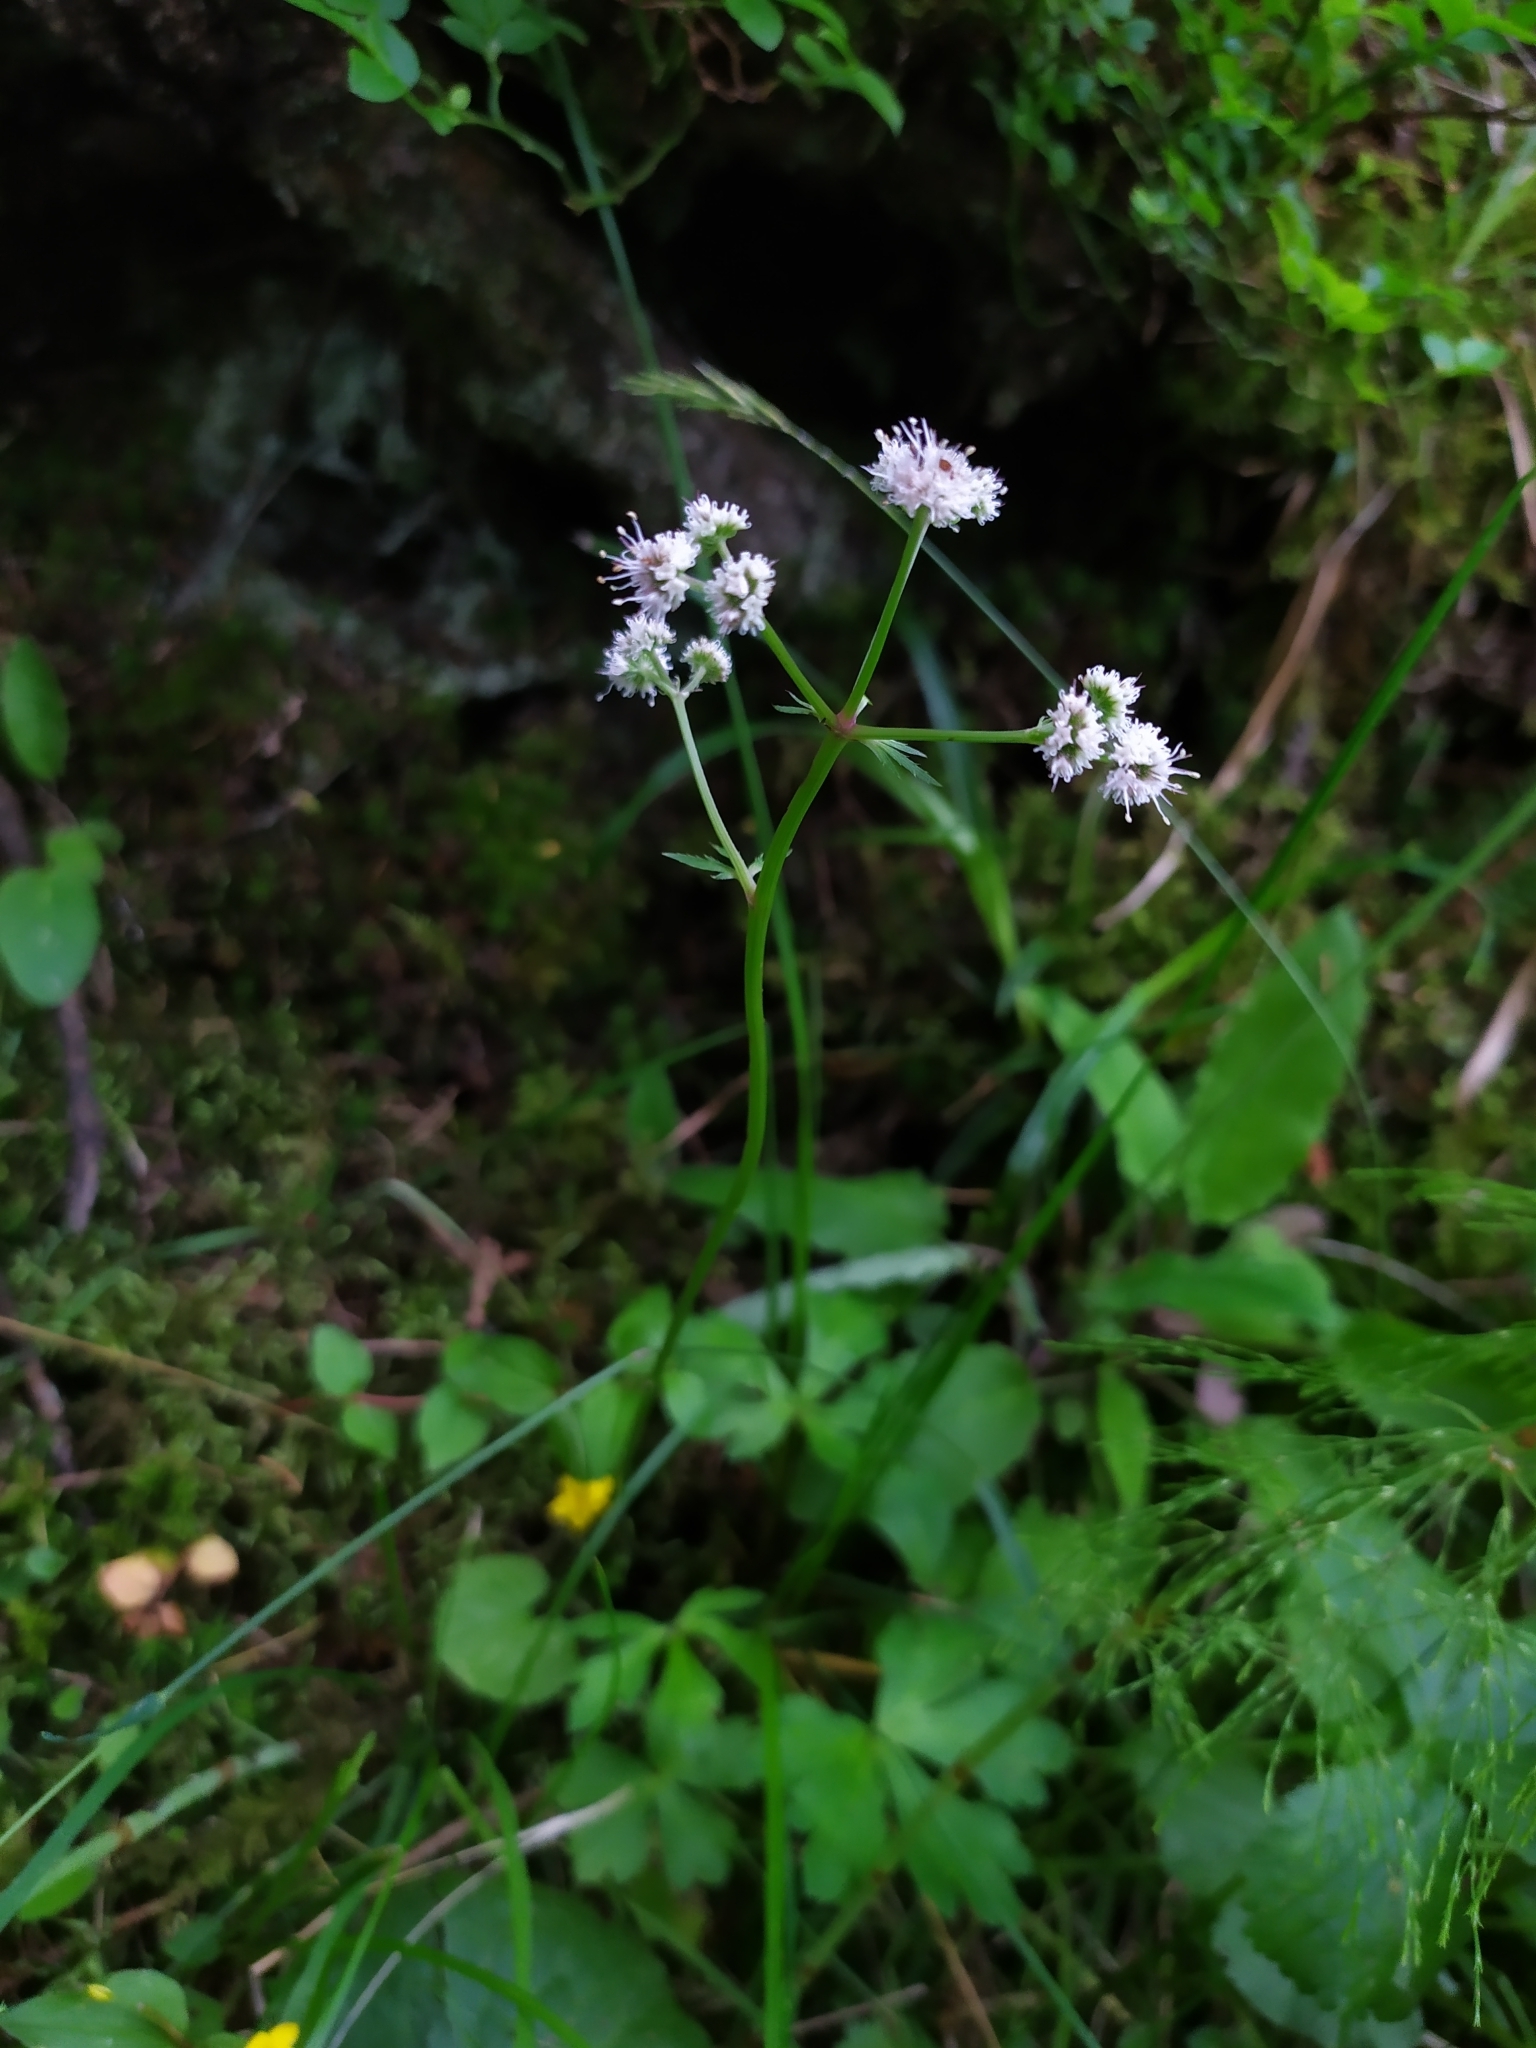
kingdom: Plantae
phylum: Tracheophyta
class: Magnoliopsida
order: Apiales
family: Apiaceae
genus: Sanicula
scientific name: Sanicula europaea
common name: Sanicle
